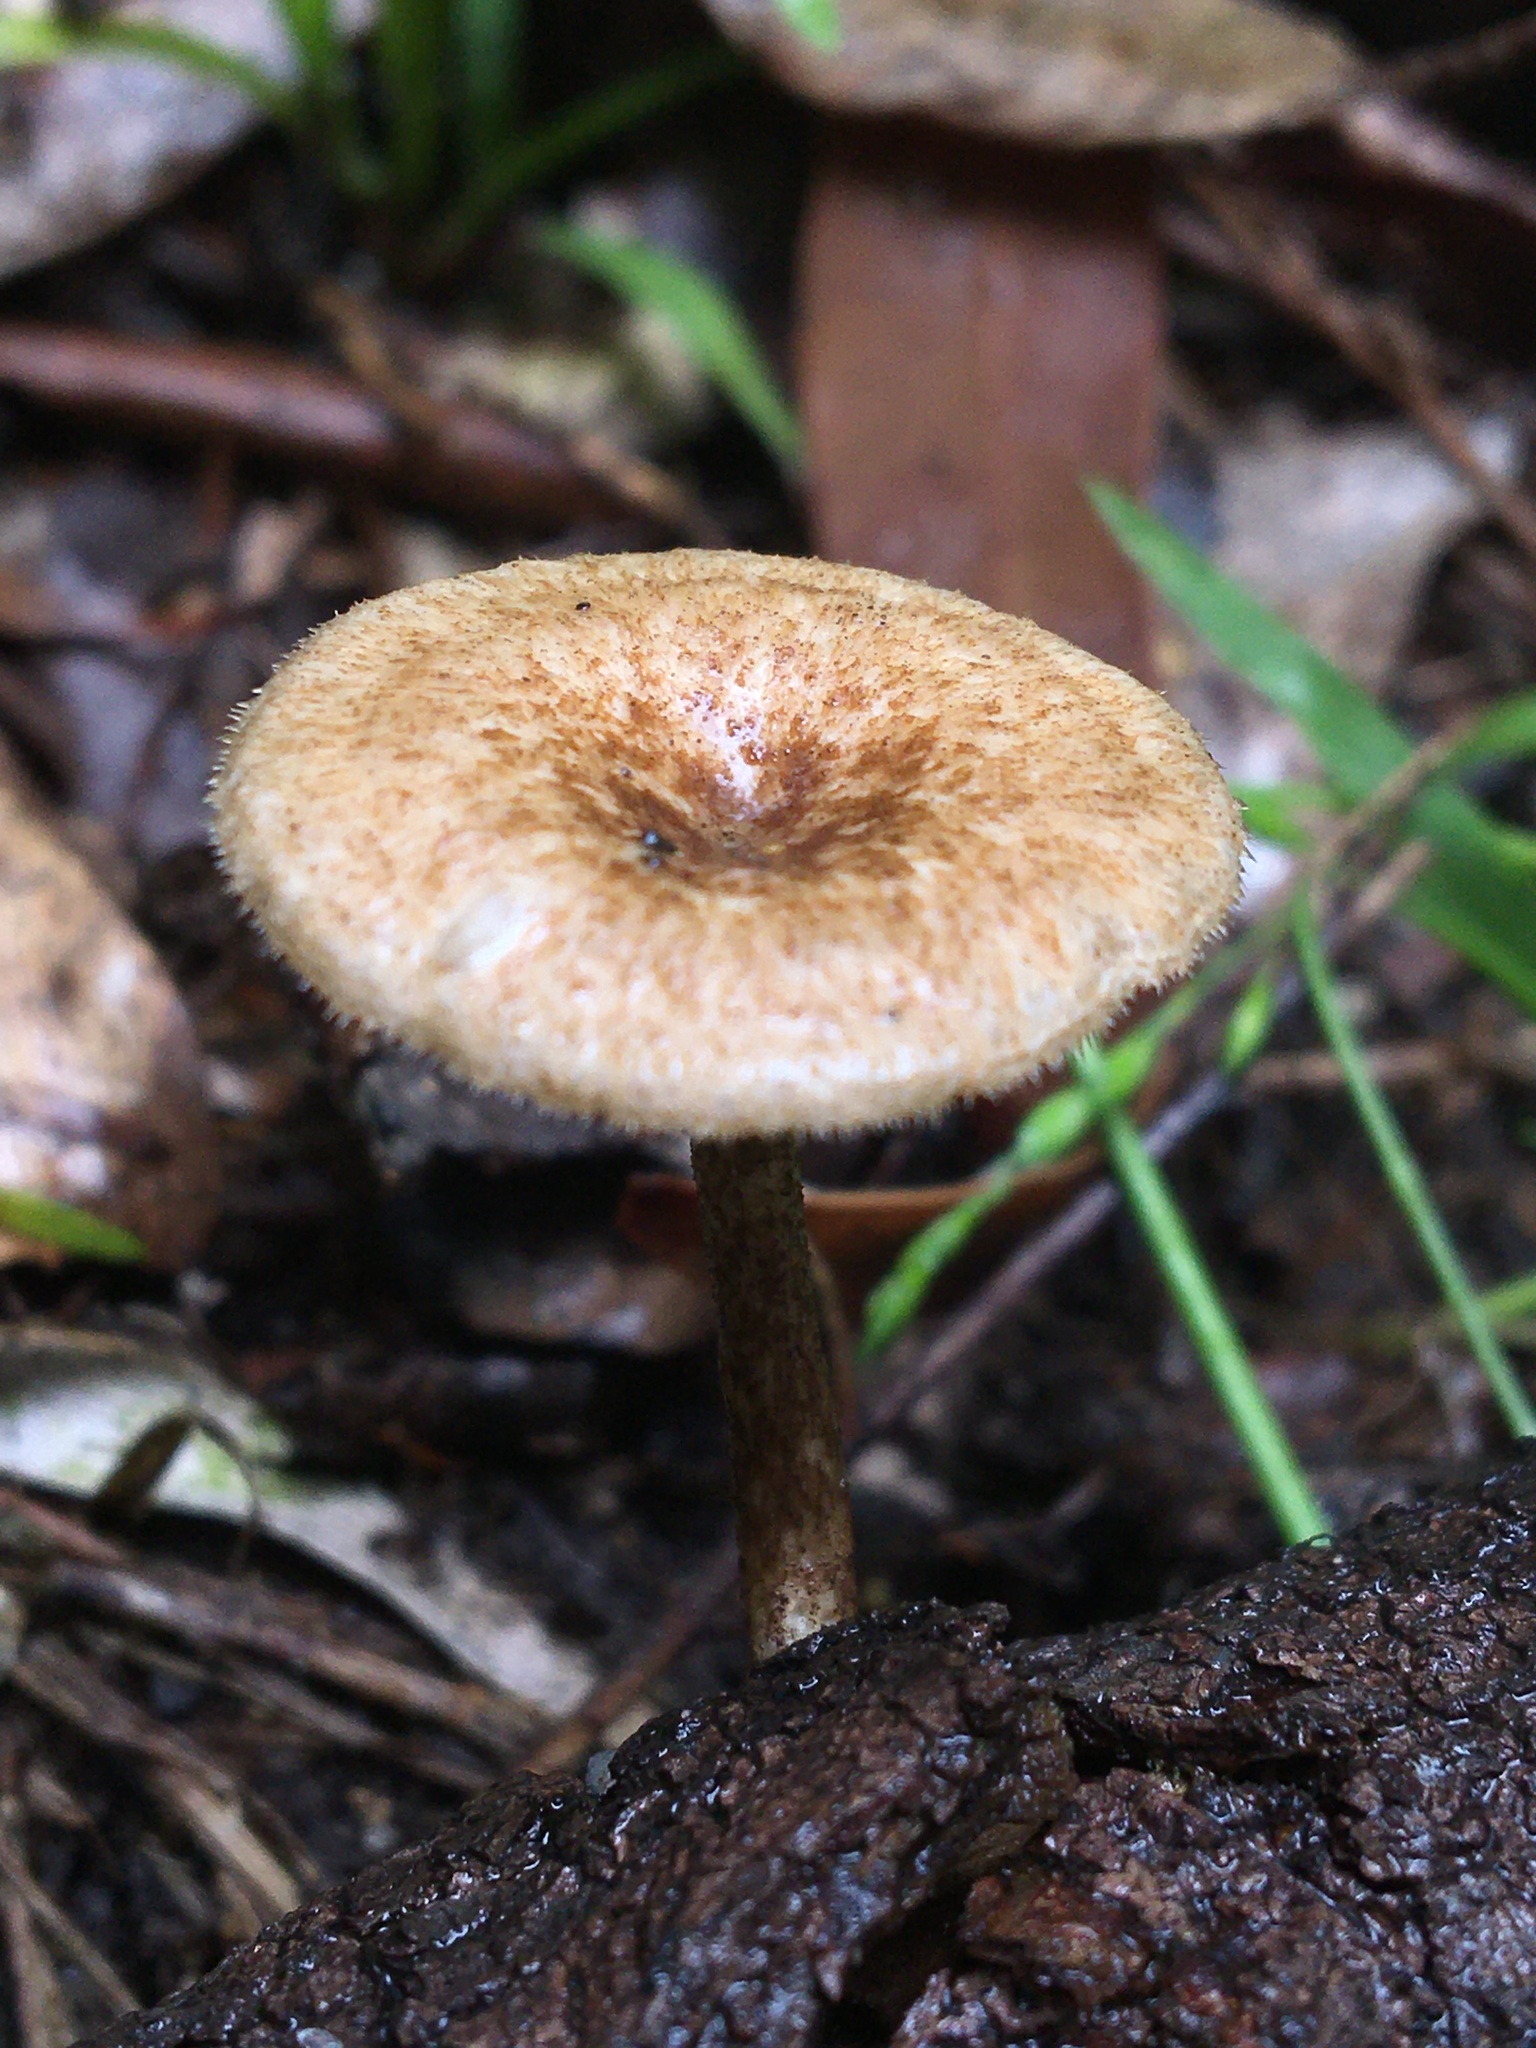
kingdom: Fungi
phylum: Basidiomycota
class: Agaricomycetes
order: Polyporales
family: Polyporaceae
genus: Lentinus
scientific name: Lentinus arcularius
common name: Spring polypore
